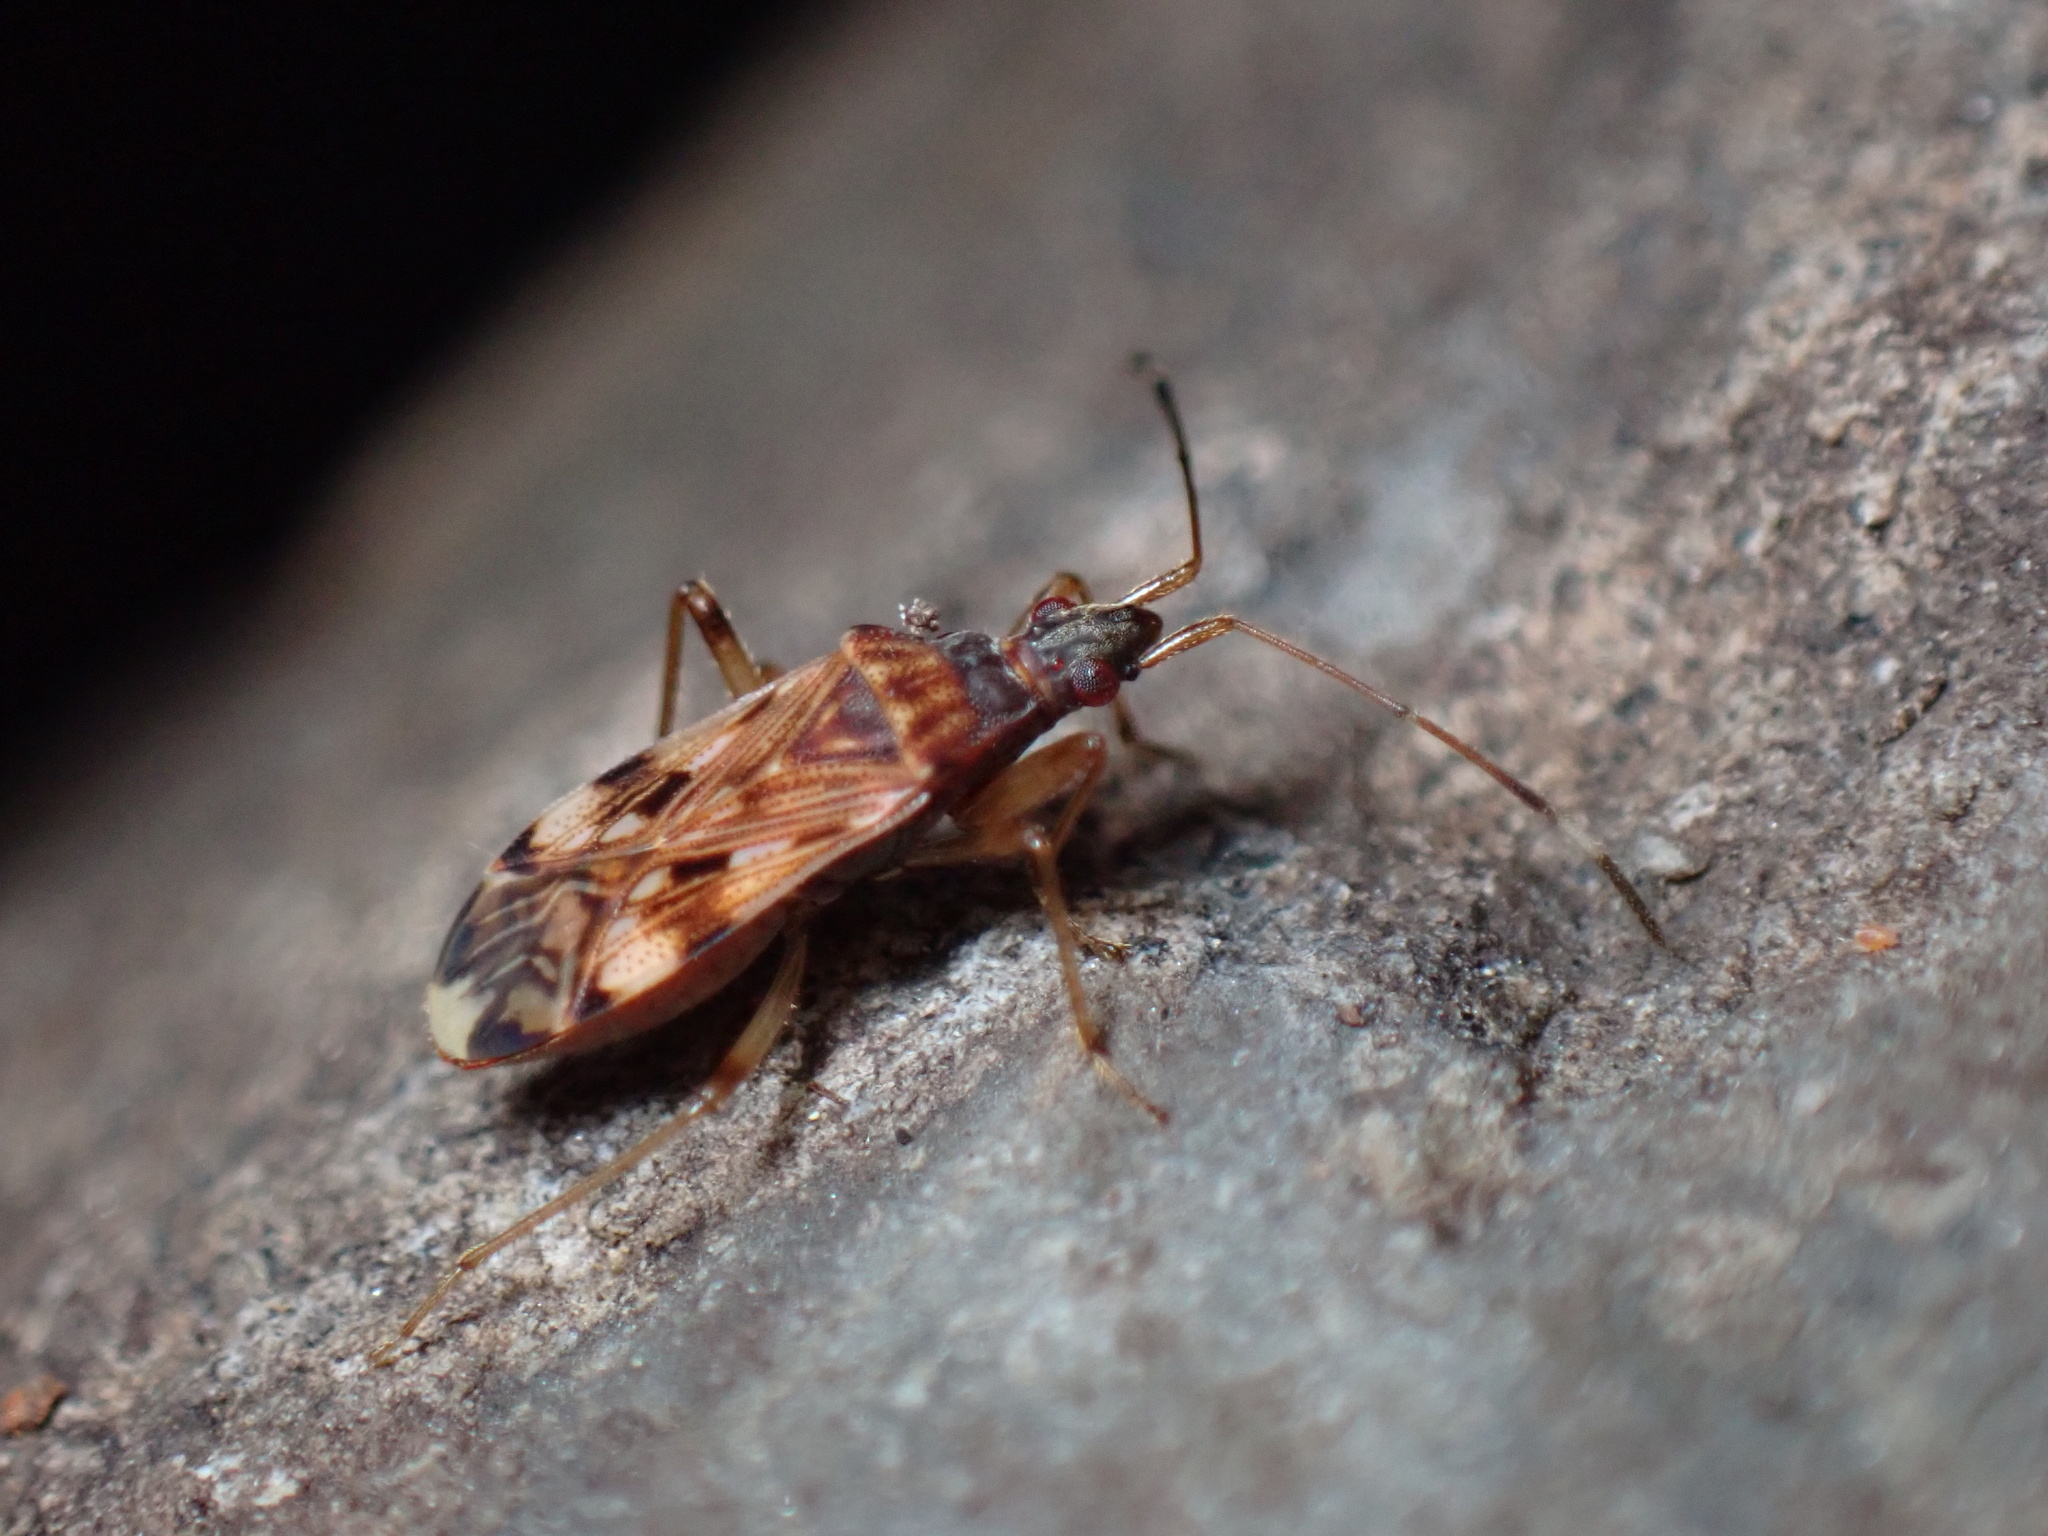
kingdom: Animalia
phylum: Arthropoda
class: Insecta
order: Hemiptera
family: Rhyparochromidae
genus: Ozophora
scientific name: Ozophora picturata
